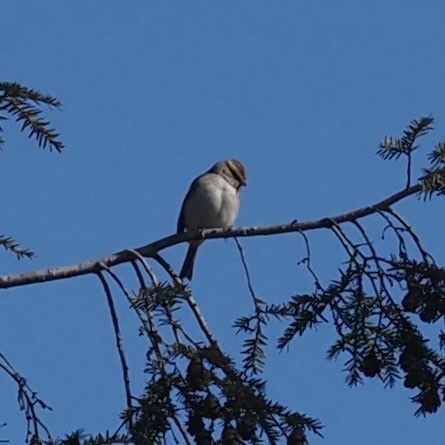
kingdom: Animalia
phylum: Chordata
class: Aves
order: Passeriformes
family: Passerellidae
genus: Spizella
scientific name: Spizella passerina
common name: Chipping sparrow
